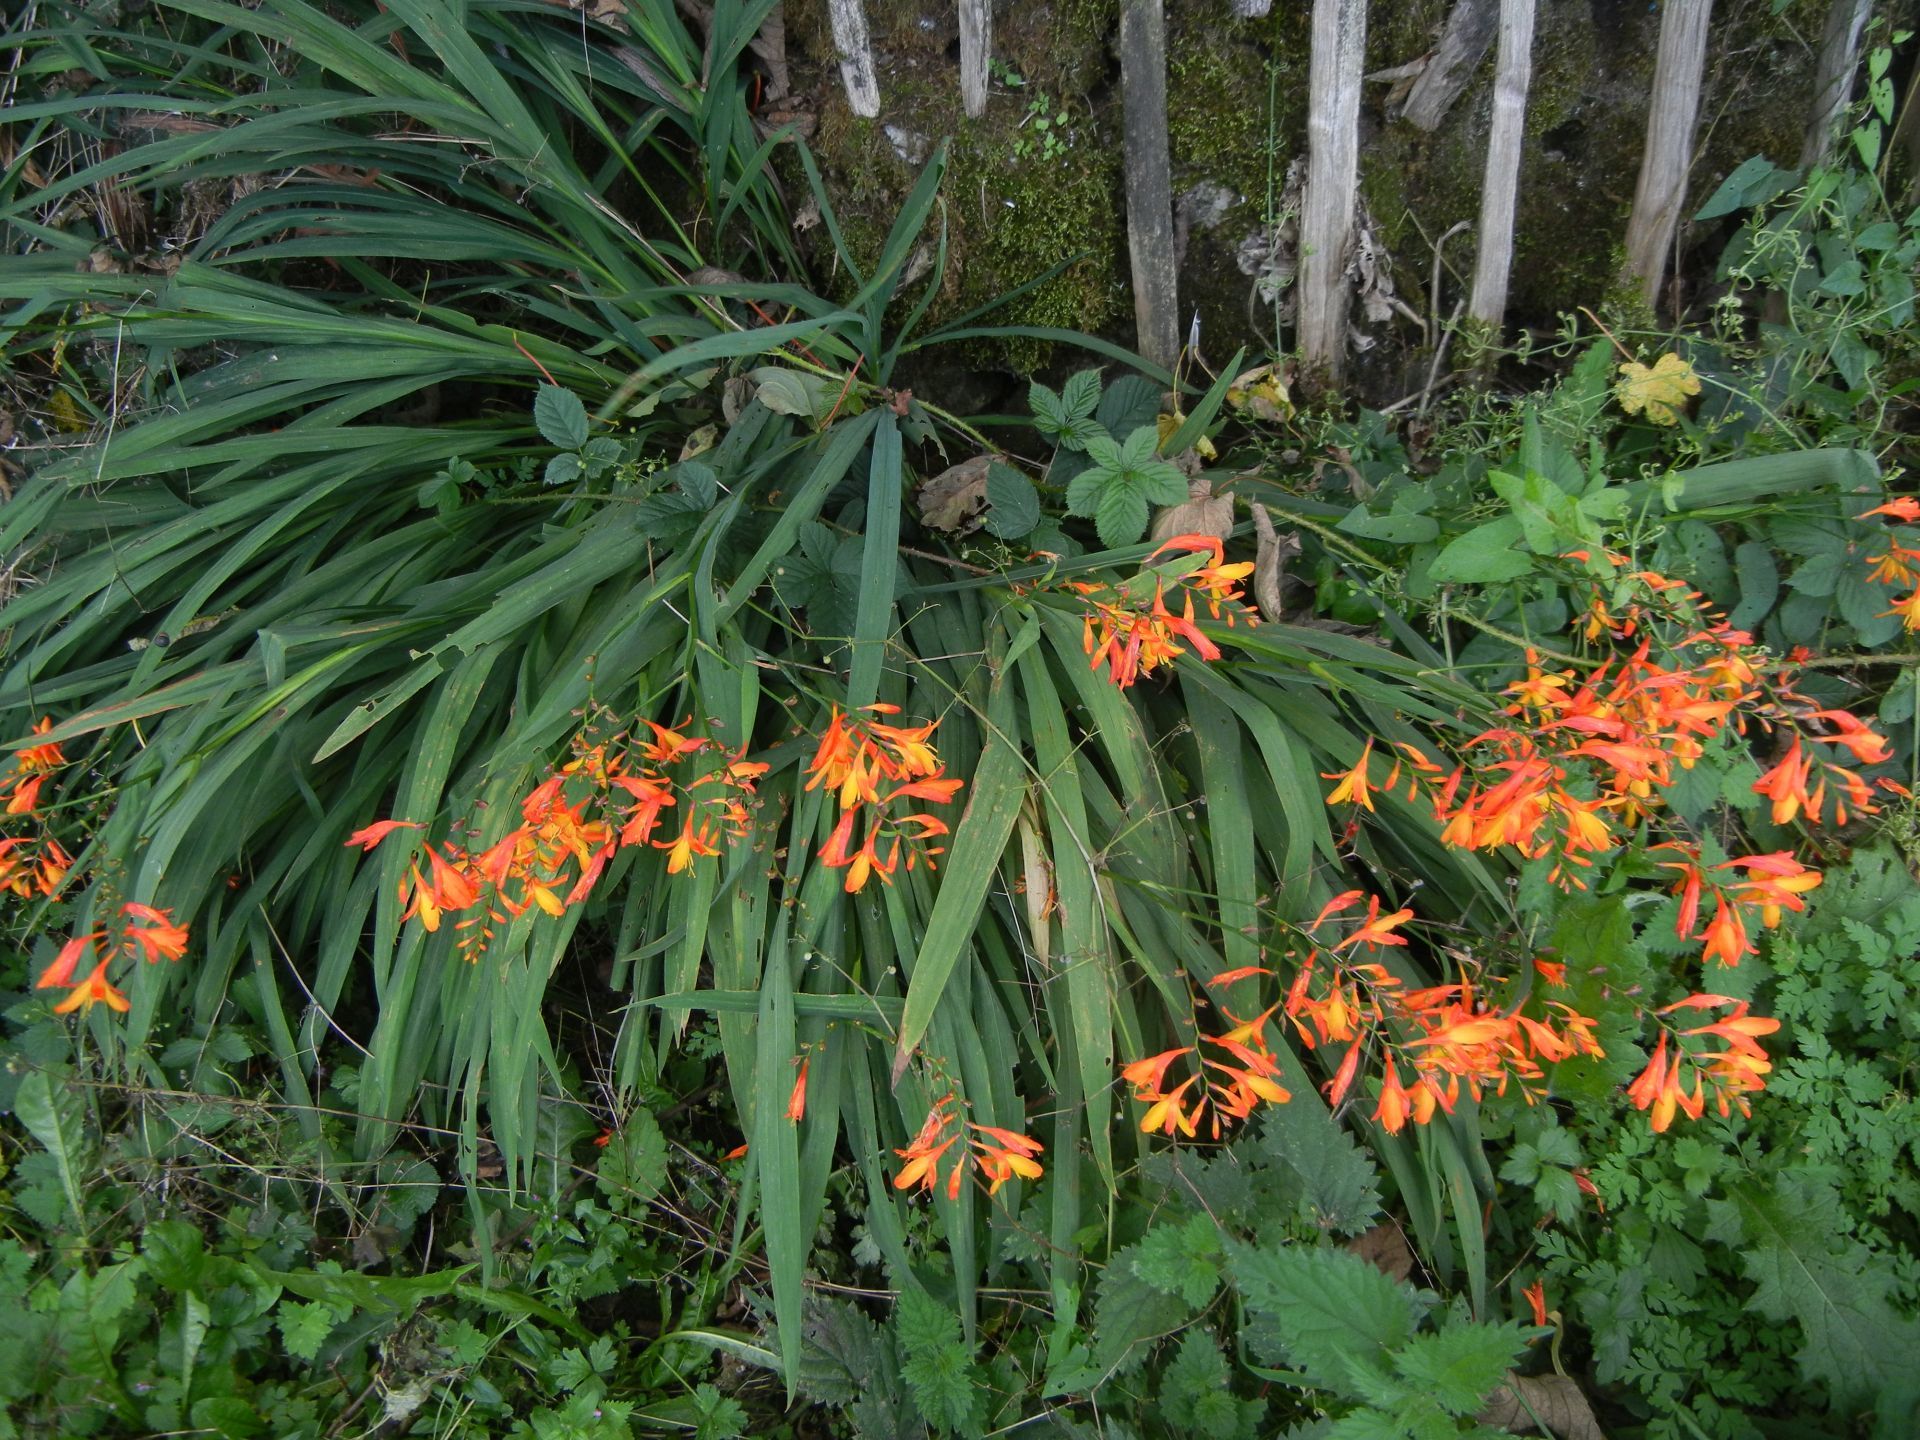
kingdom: Plantae
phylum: Tracheophyta
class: Liliopsida
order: Asparagales
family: Iridaceae
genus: Crocosmia
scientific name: Crocosmia crocosmiiflora
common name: Montbretia
